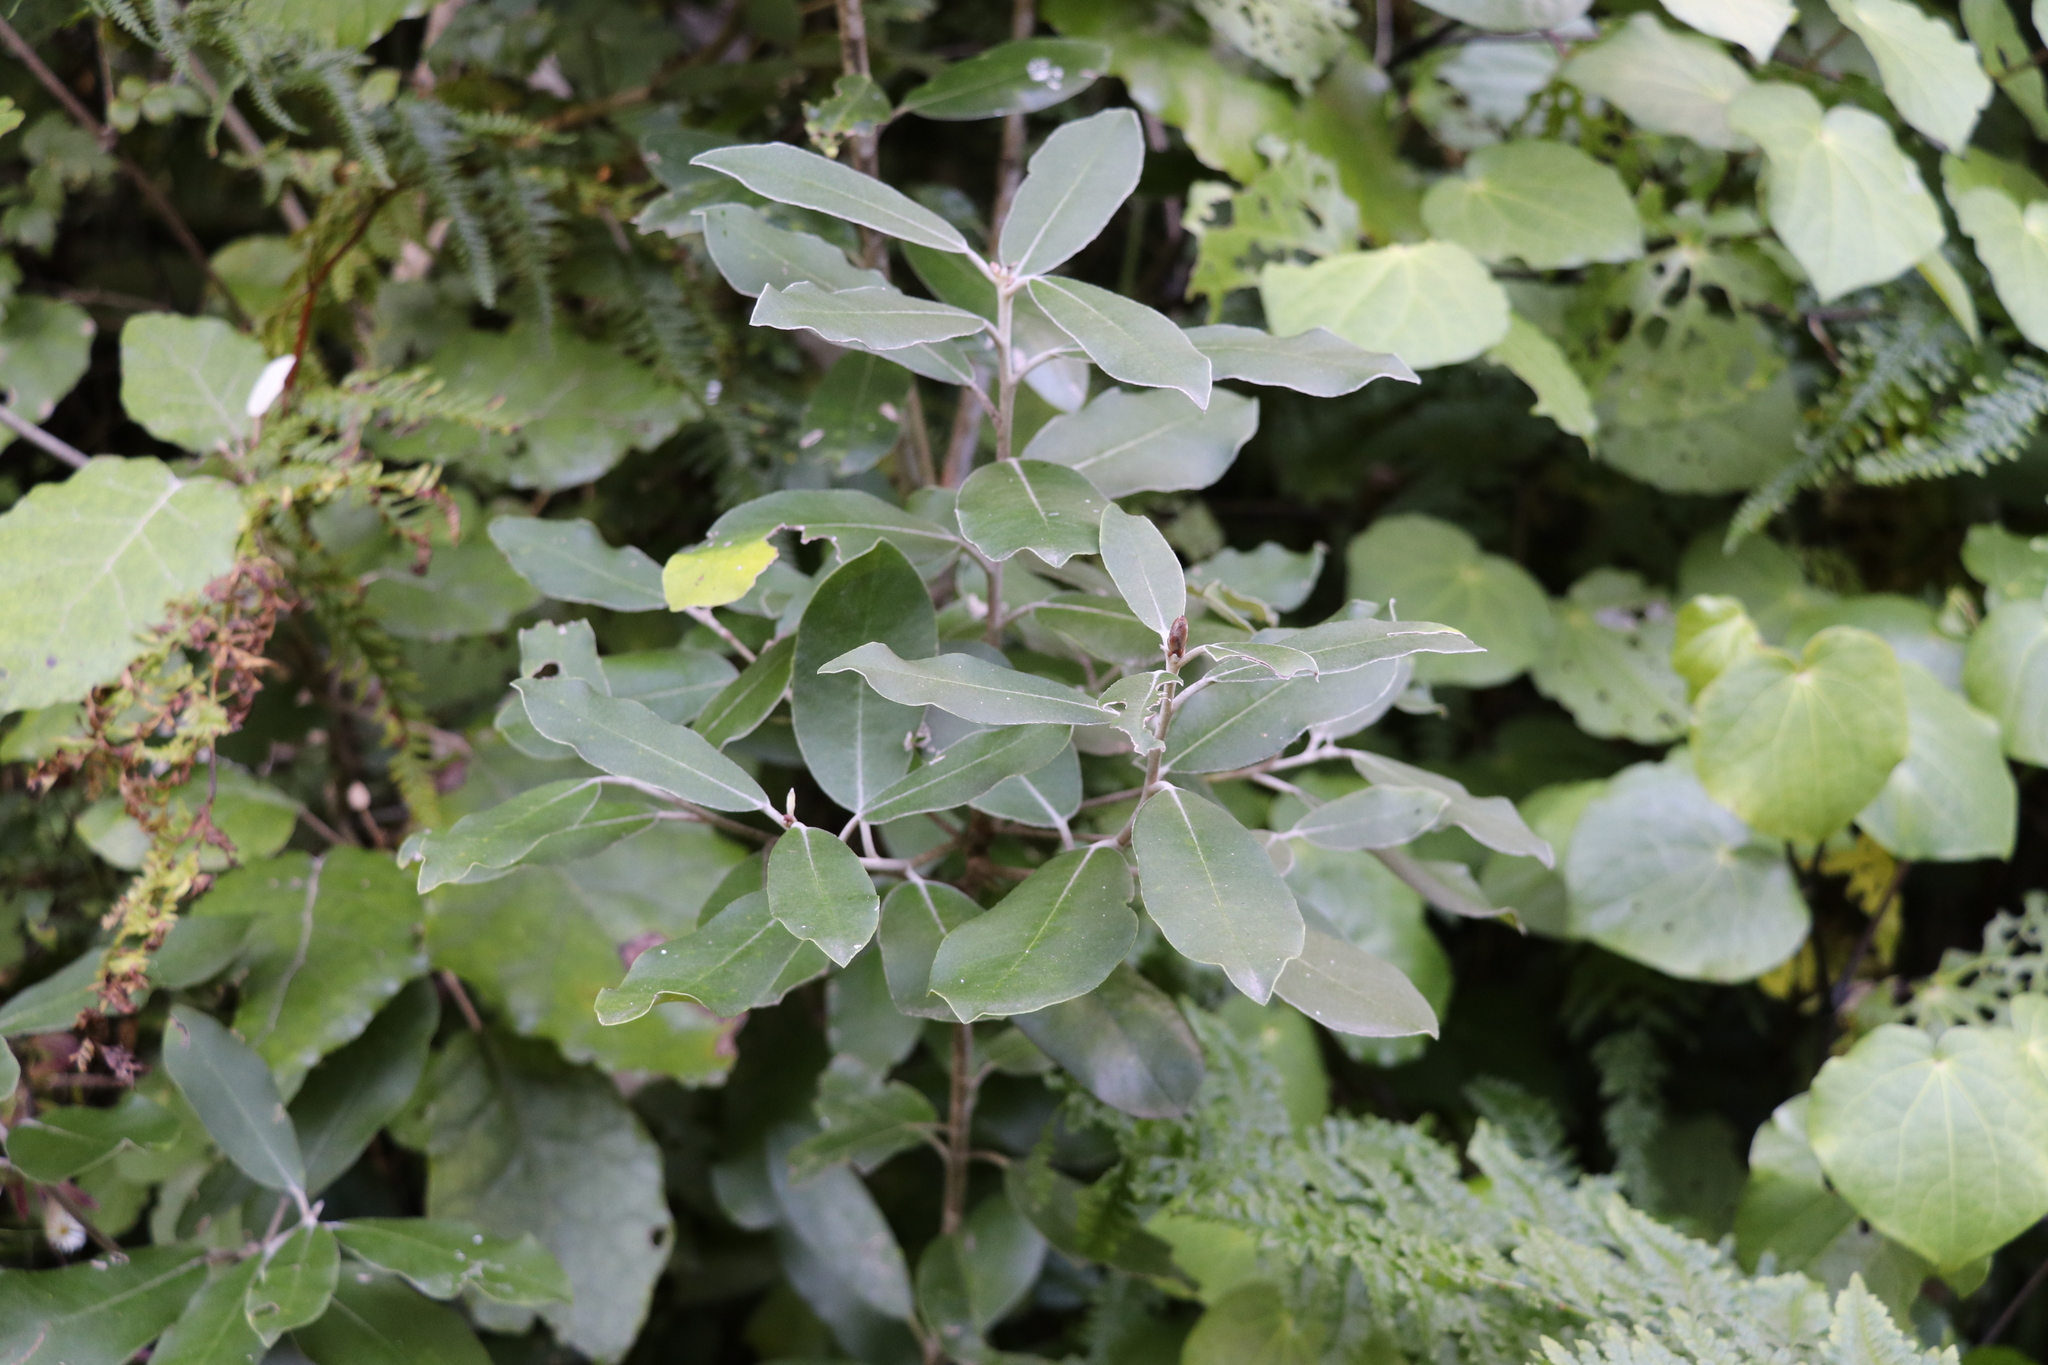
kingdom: Plantae
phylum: Tracheophyta
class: Magnoliopsida
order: Apiales
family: Pittosporaceae
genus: Pittosporum
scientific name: Pittosporum ralphii
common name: Ralph's desertwillow
